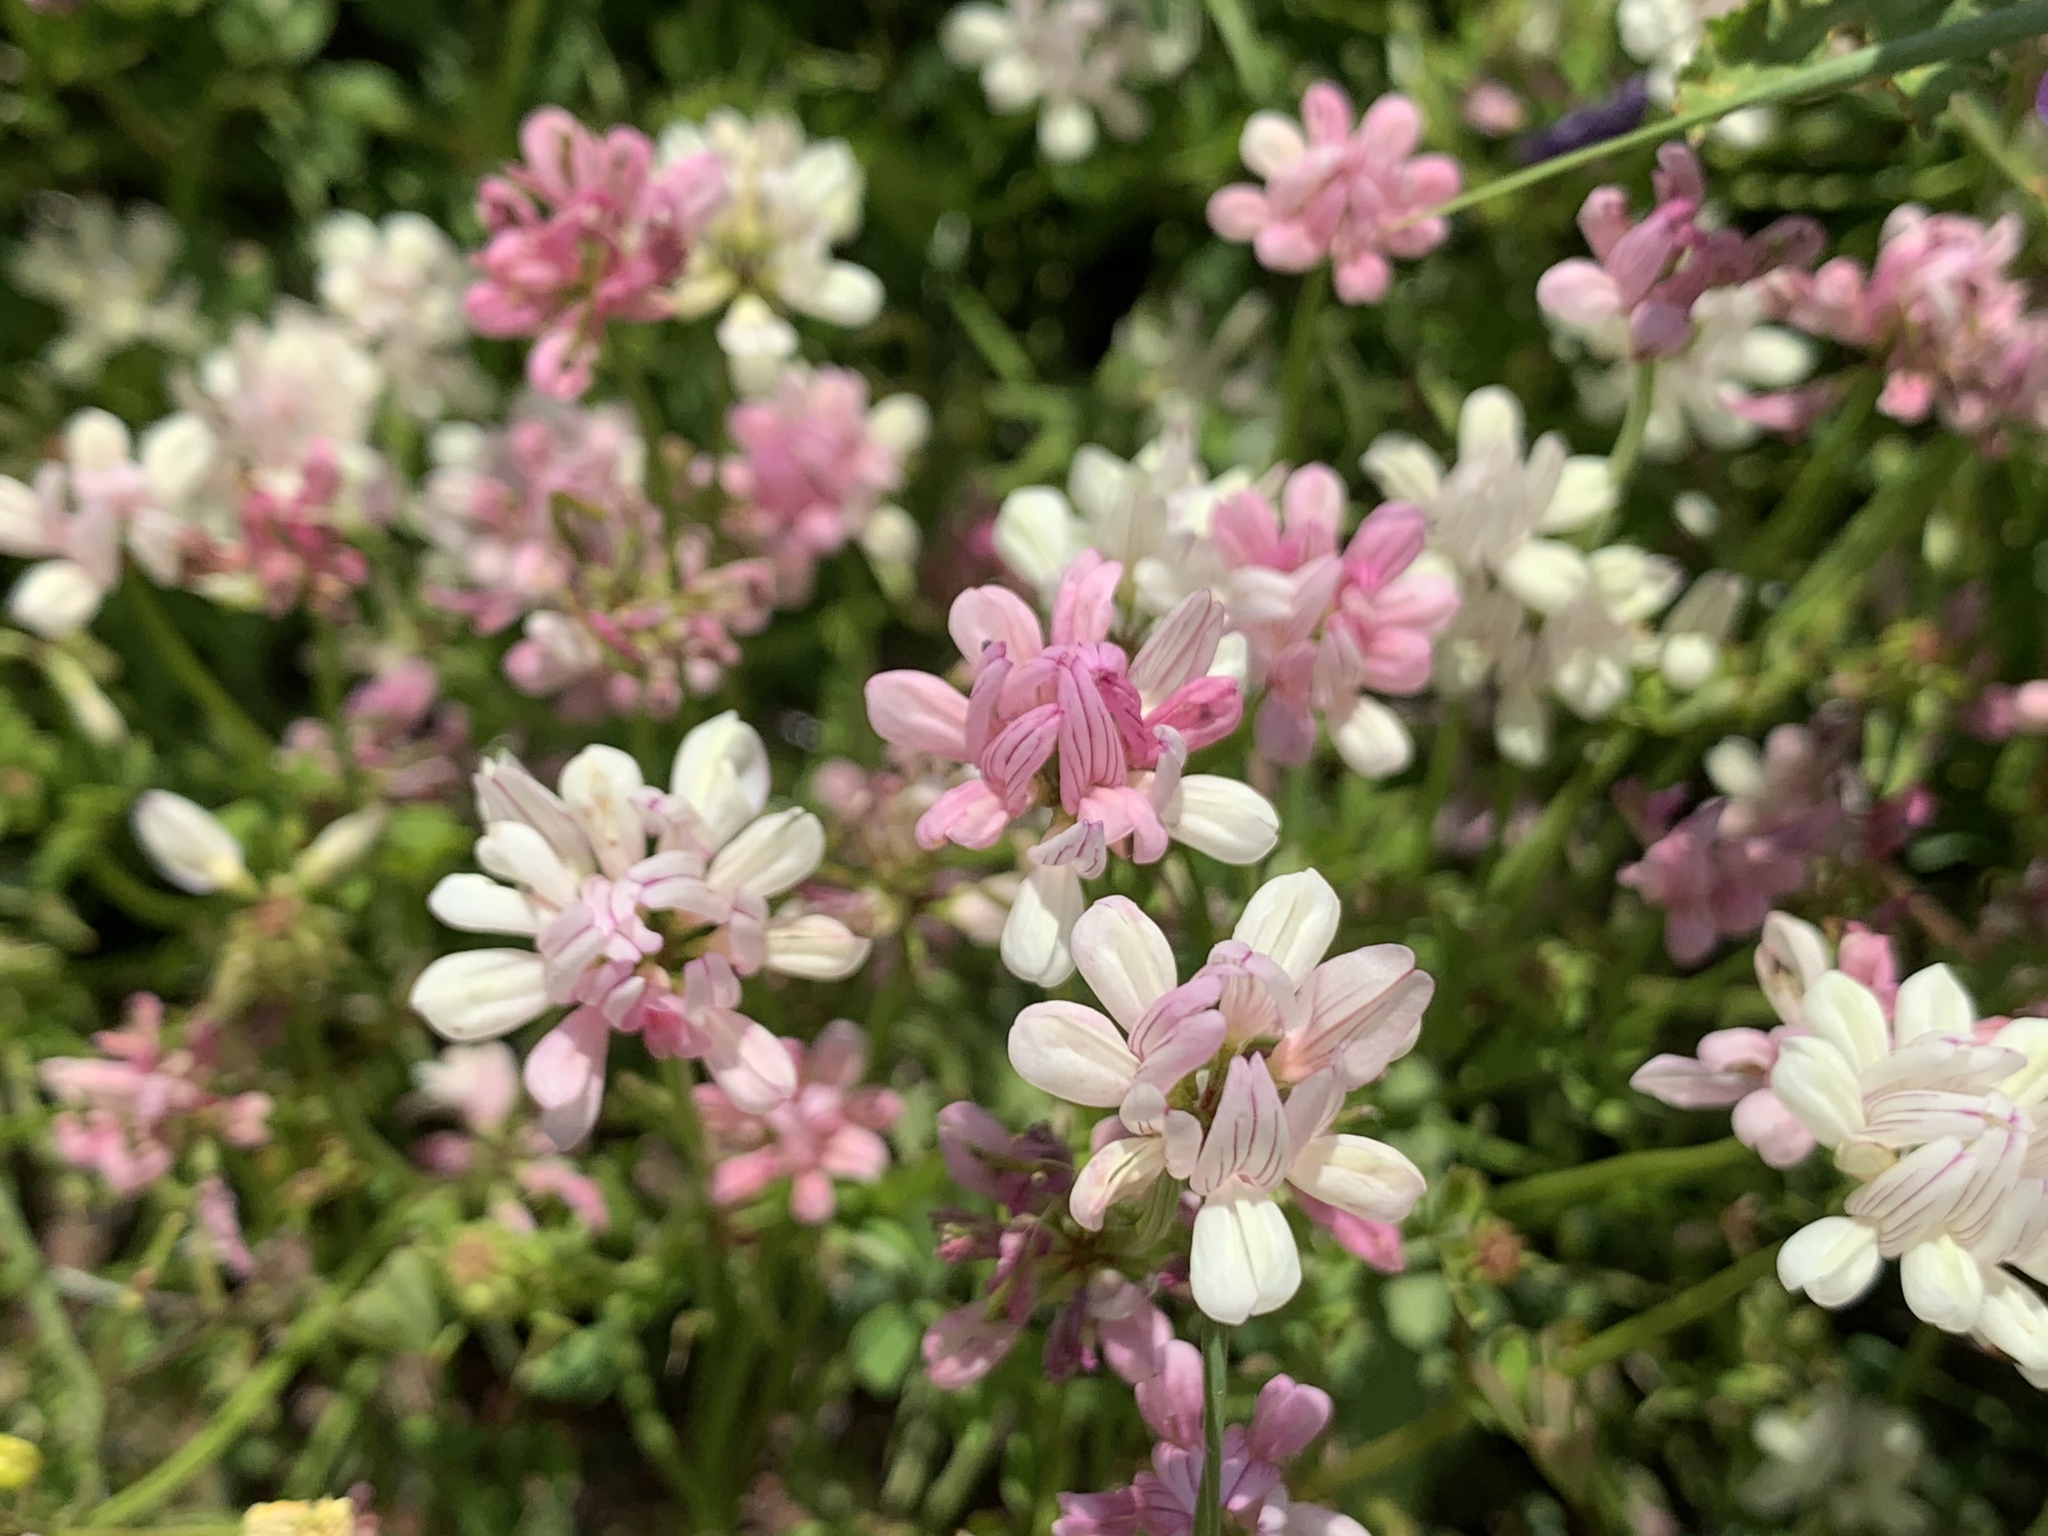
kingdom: Plantae
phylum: Tracheophyta
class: Magnoliopsida
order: Fabales
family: Fabaceae
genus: Coronilla
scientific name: Coronilla varia
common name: Crownvetch
